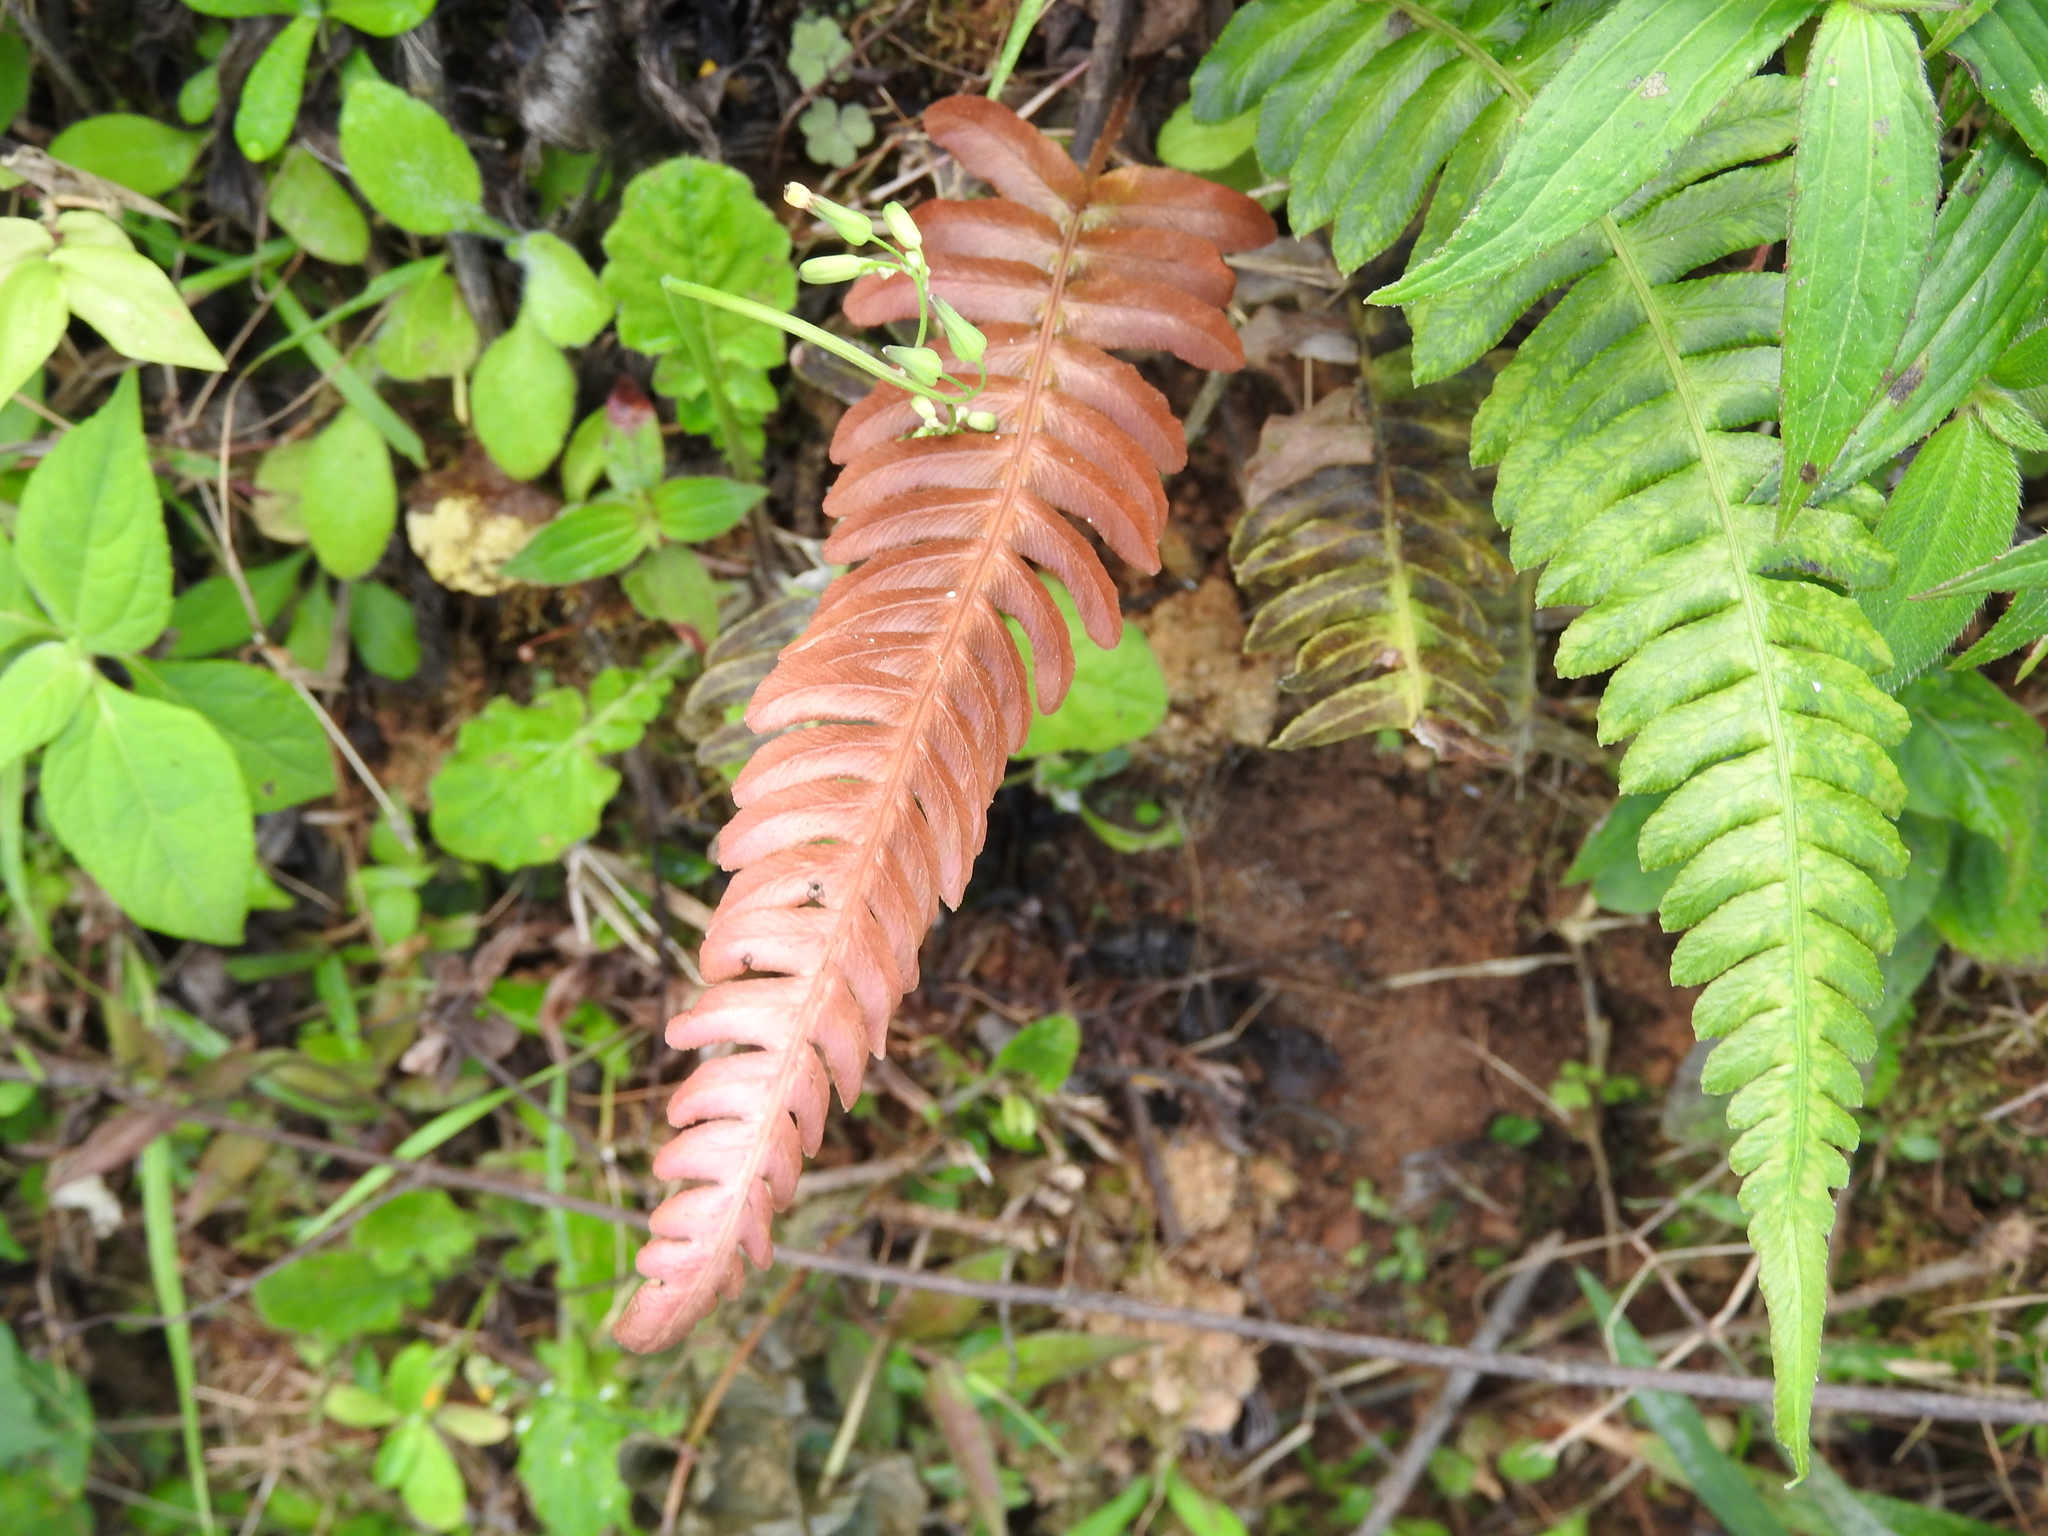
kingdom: Plantae
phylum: Tracheophyta
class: Polypodiopsida
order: Polypodiales
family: Blechnaceae
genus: Blechnum
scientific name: Blechnum occidentale
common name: Hammock fern
